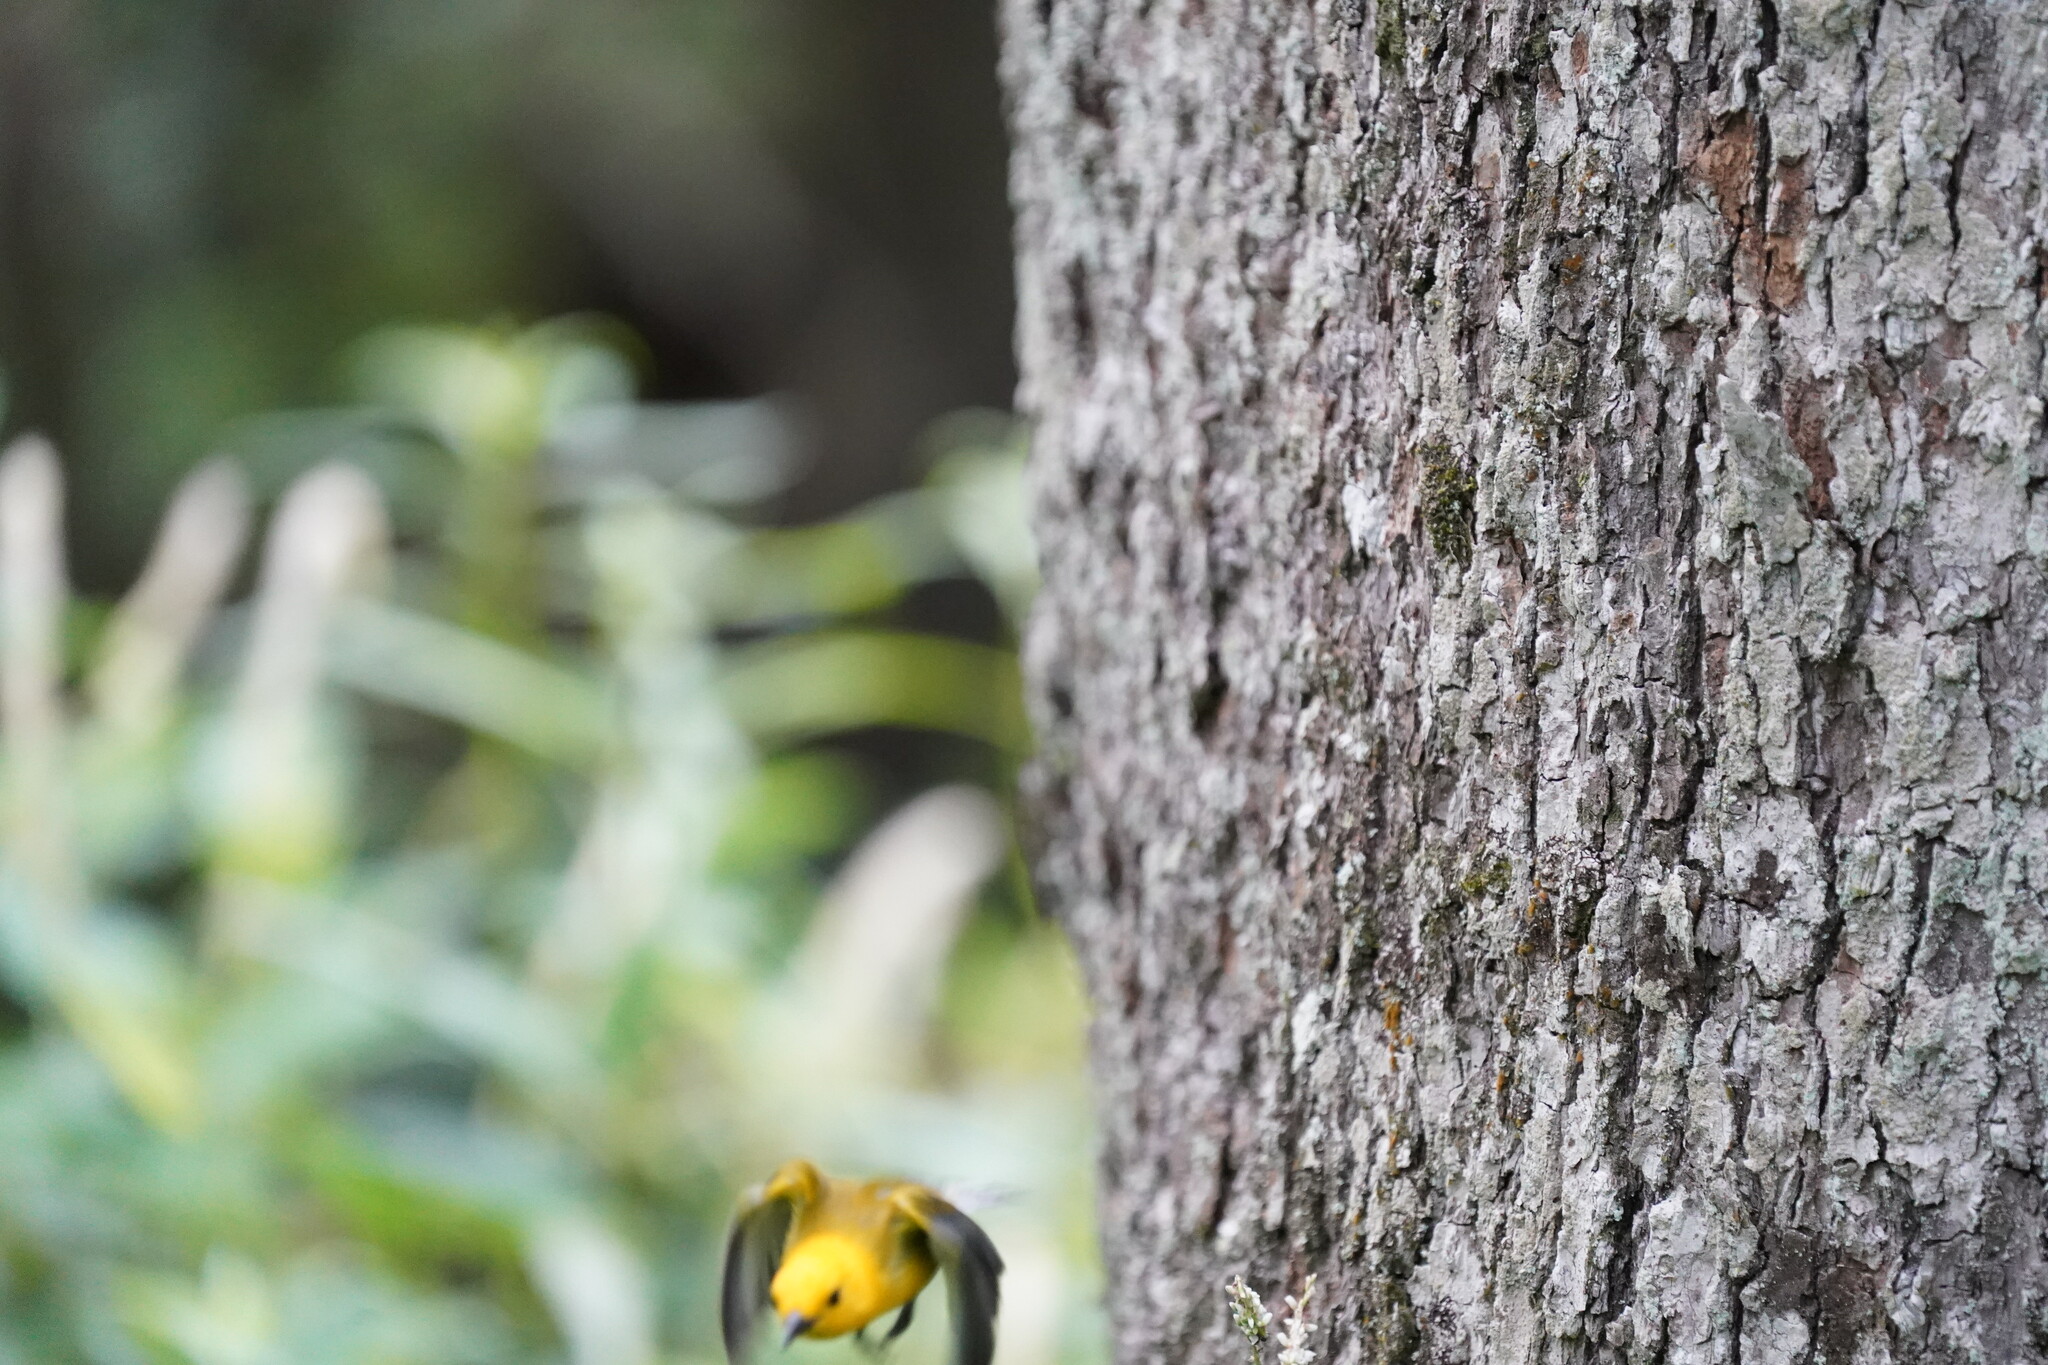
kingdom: Animalia
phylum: Chordata
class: Aves
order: Passeriformes
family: Parulidae
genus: Protonotaria
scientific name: Protonotaria citrea
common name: Prothonotary warbler
